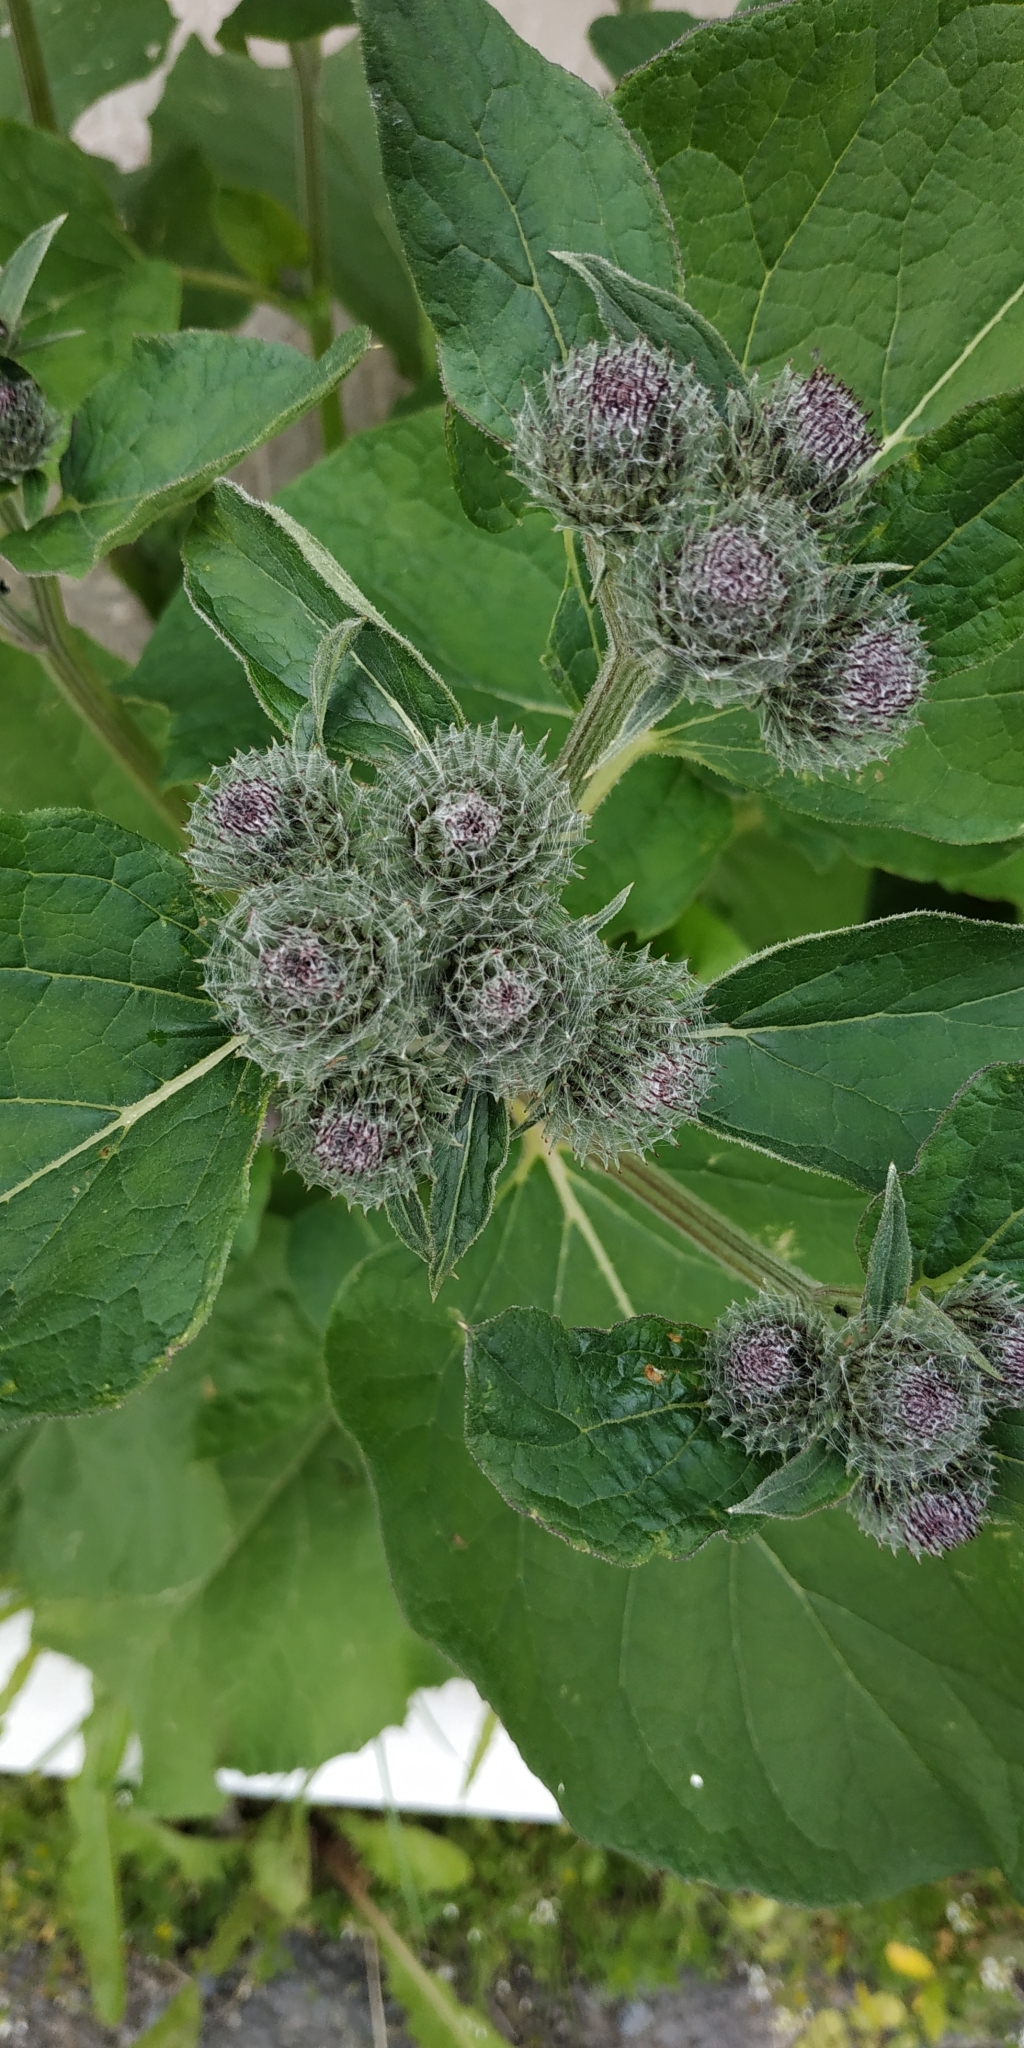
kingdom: Plantae
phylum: Tracheophyta
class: Magnoliopsida
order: Asterales
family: Asteraceae
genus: Arctium
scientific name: Arctium tomentosum
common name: Woolly burdock
